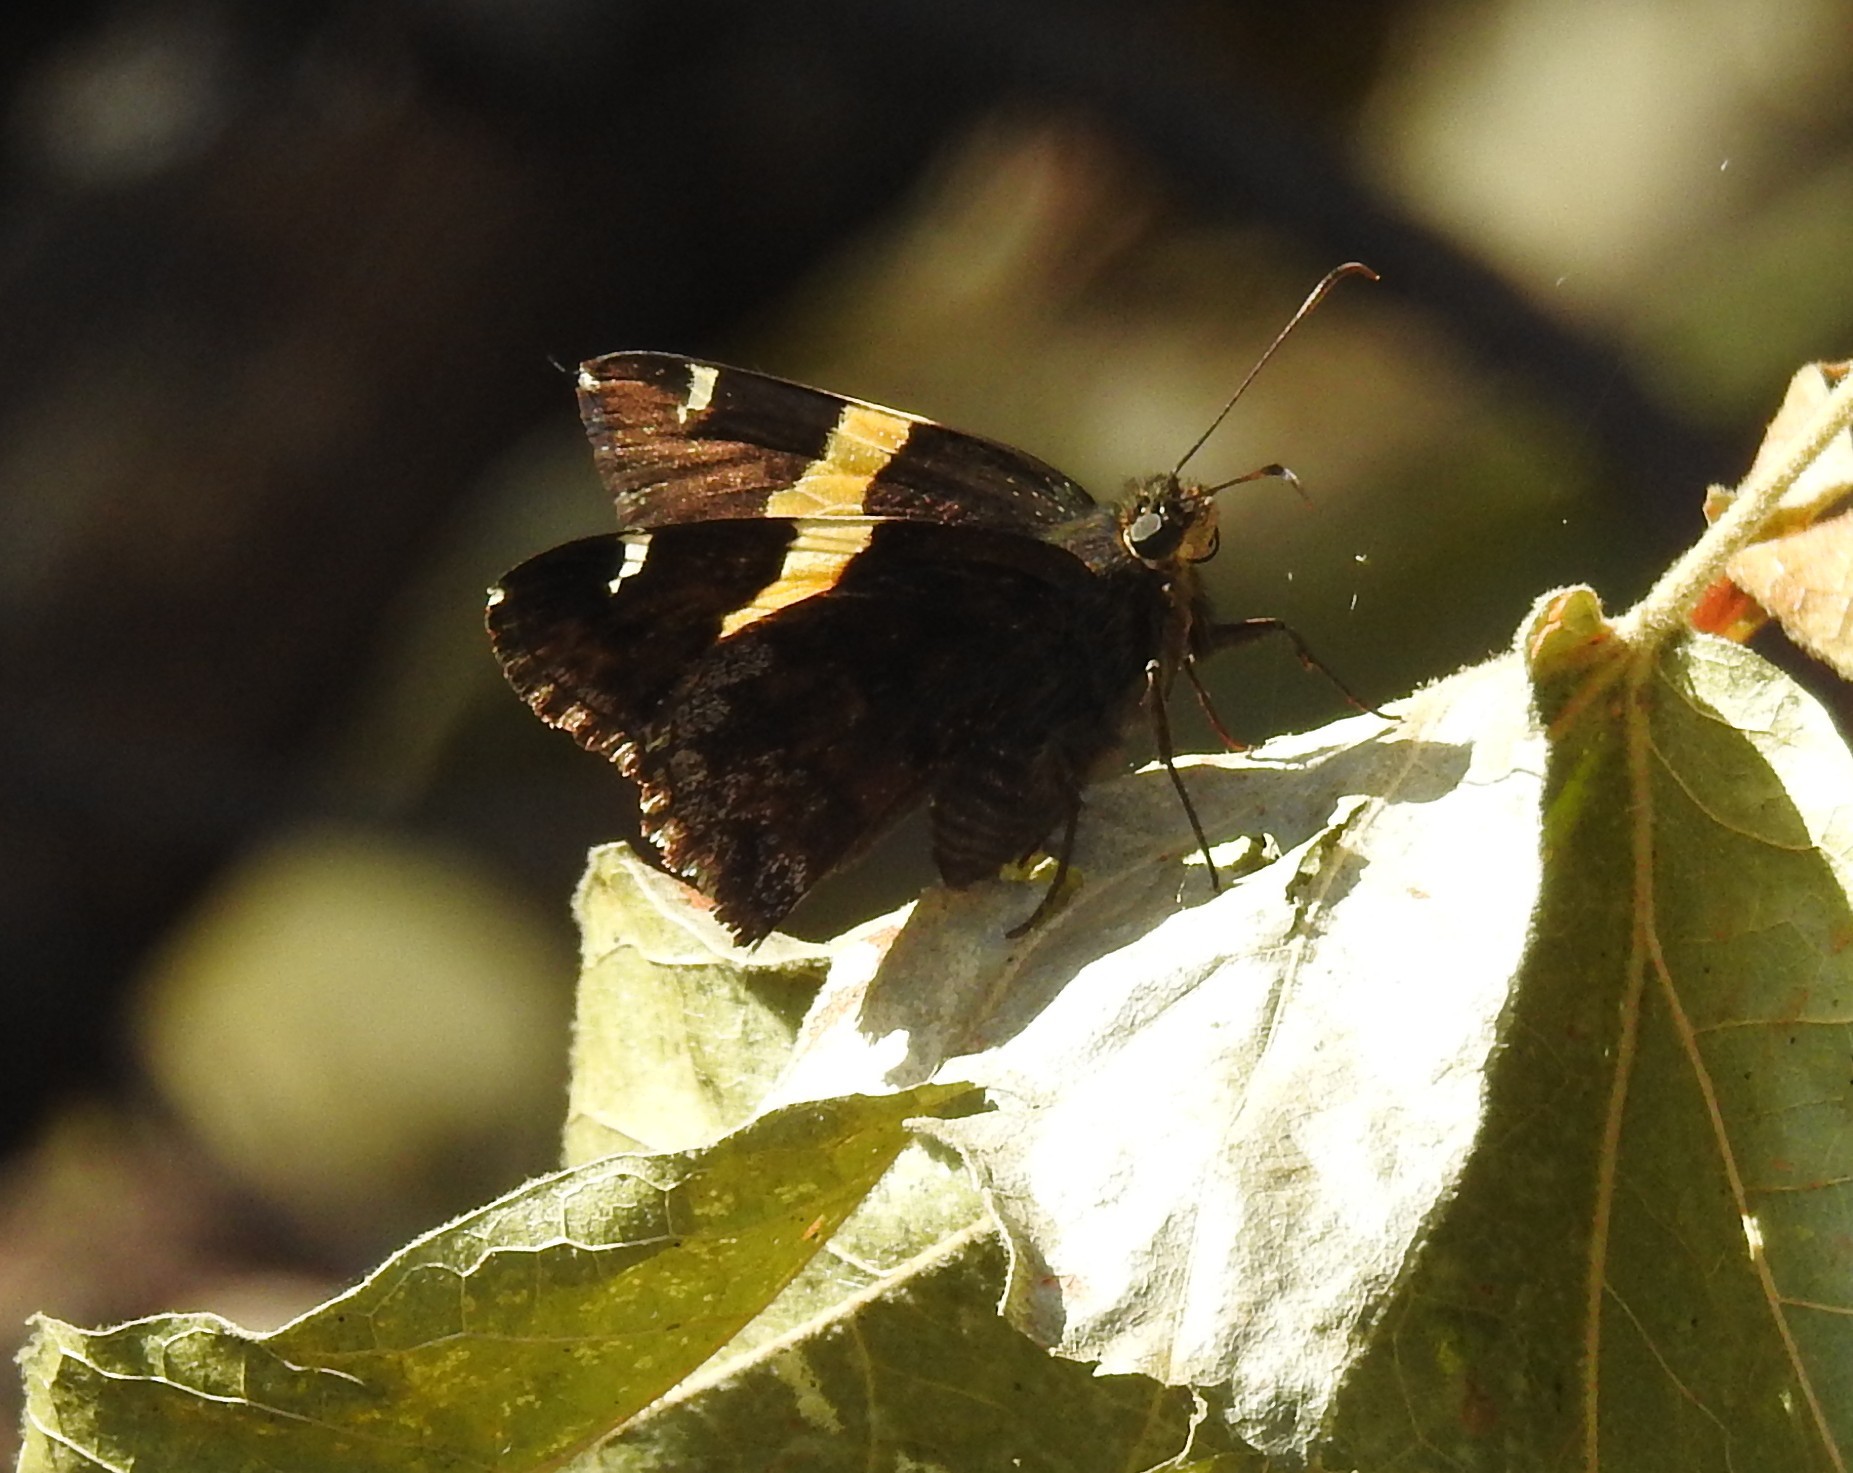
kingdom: Animalia
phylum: Arthropoda
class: Arachnida
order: Scorpiones
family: Bothriuridae
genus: Telegonus
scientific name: Telegonus cellus
